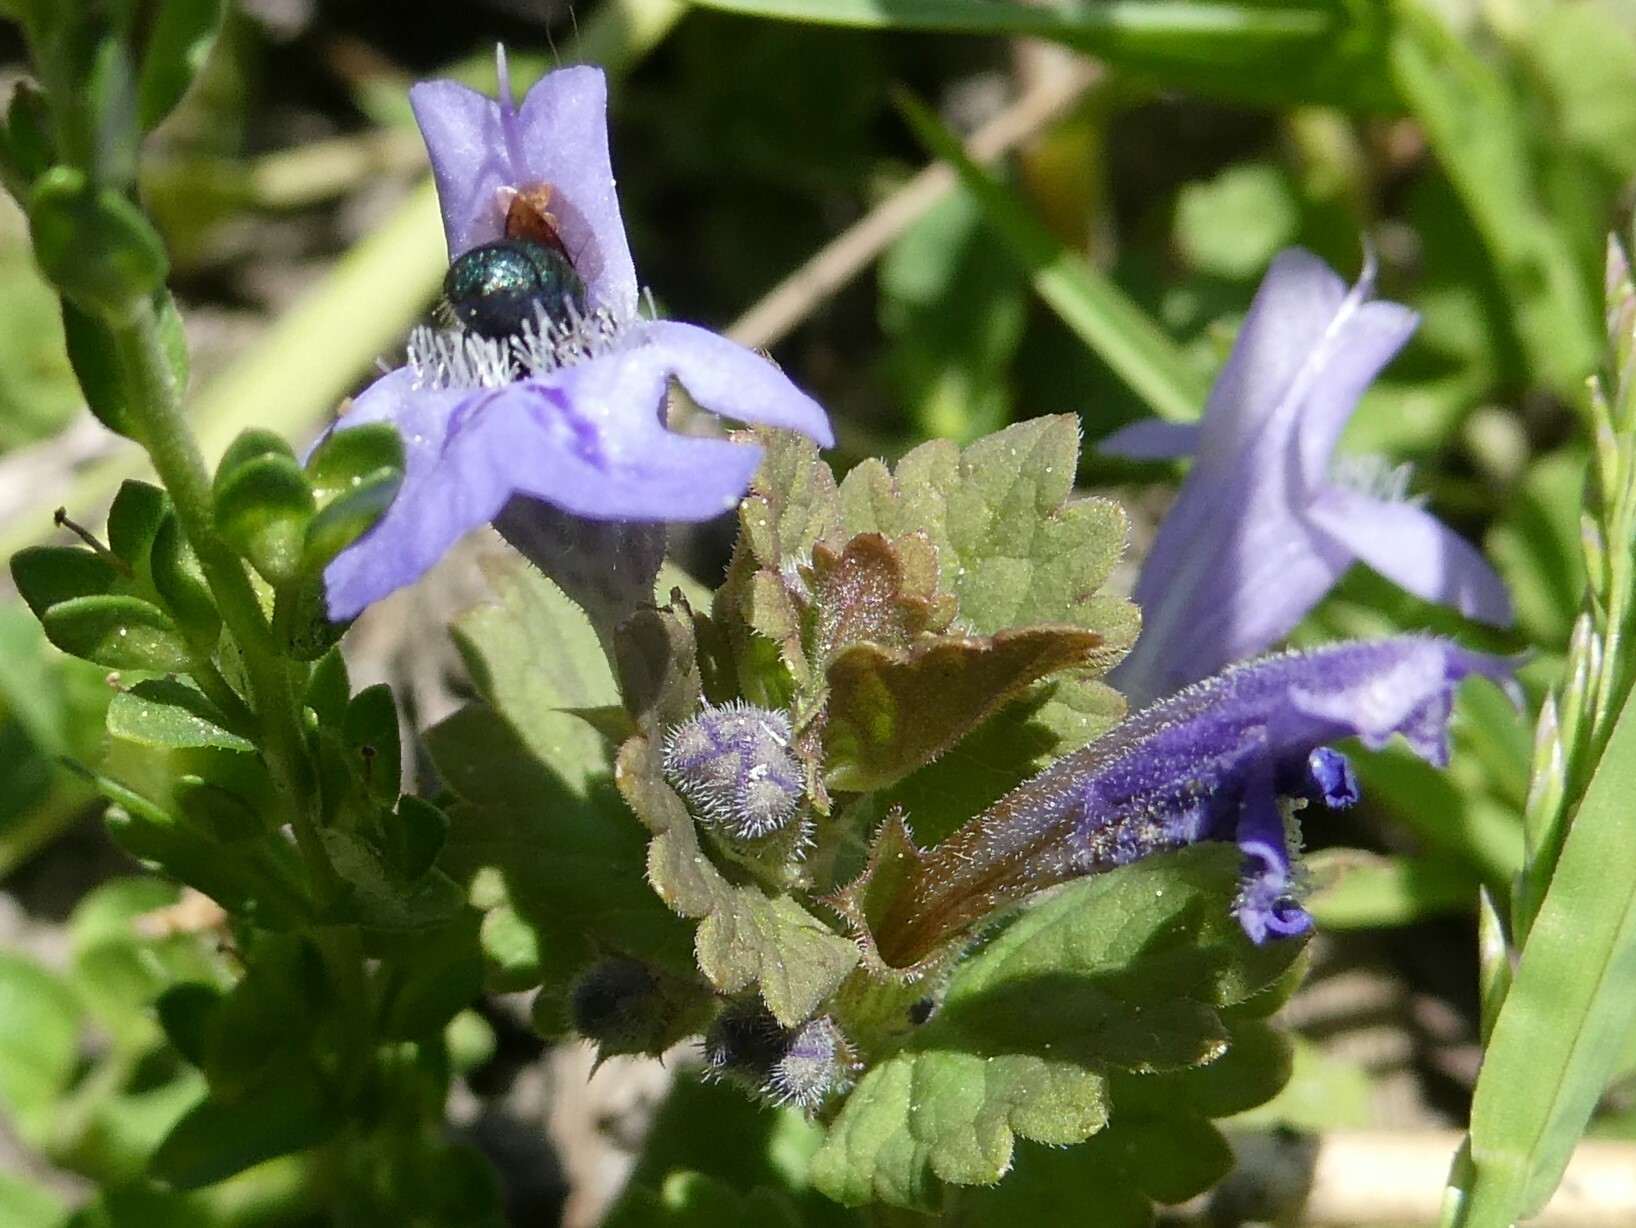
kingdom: Plantae
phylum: Tracheophyta
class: Magnoliopsida
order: Lamiales
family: Lamiaceae
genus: Glechoma
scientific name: Glechoma hederacea
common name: Ground ivy
